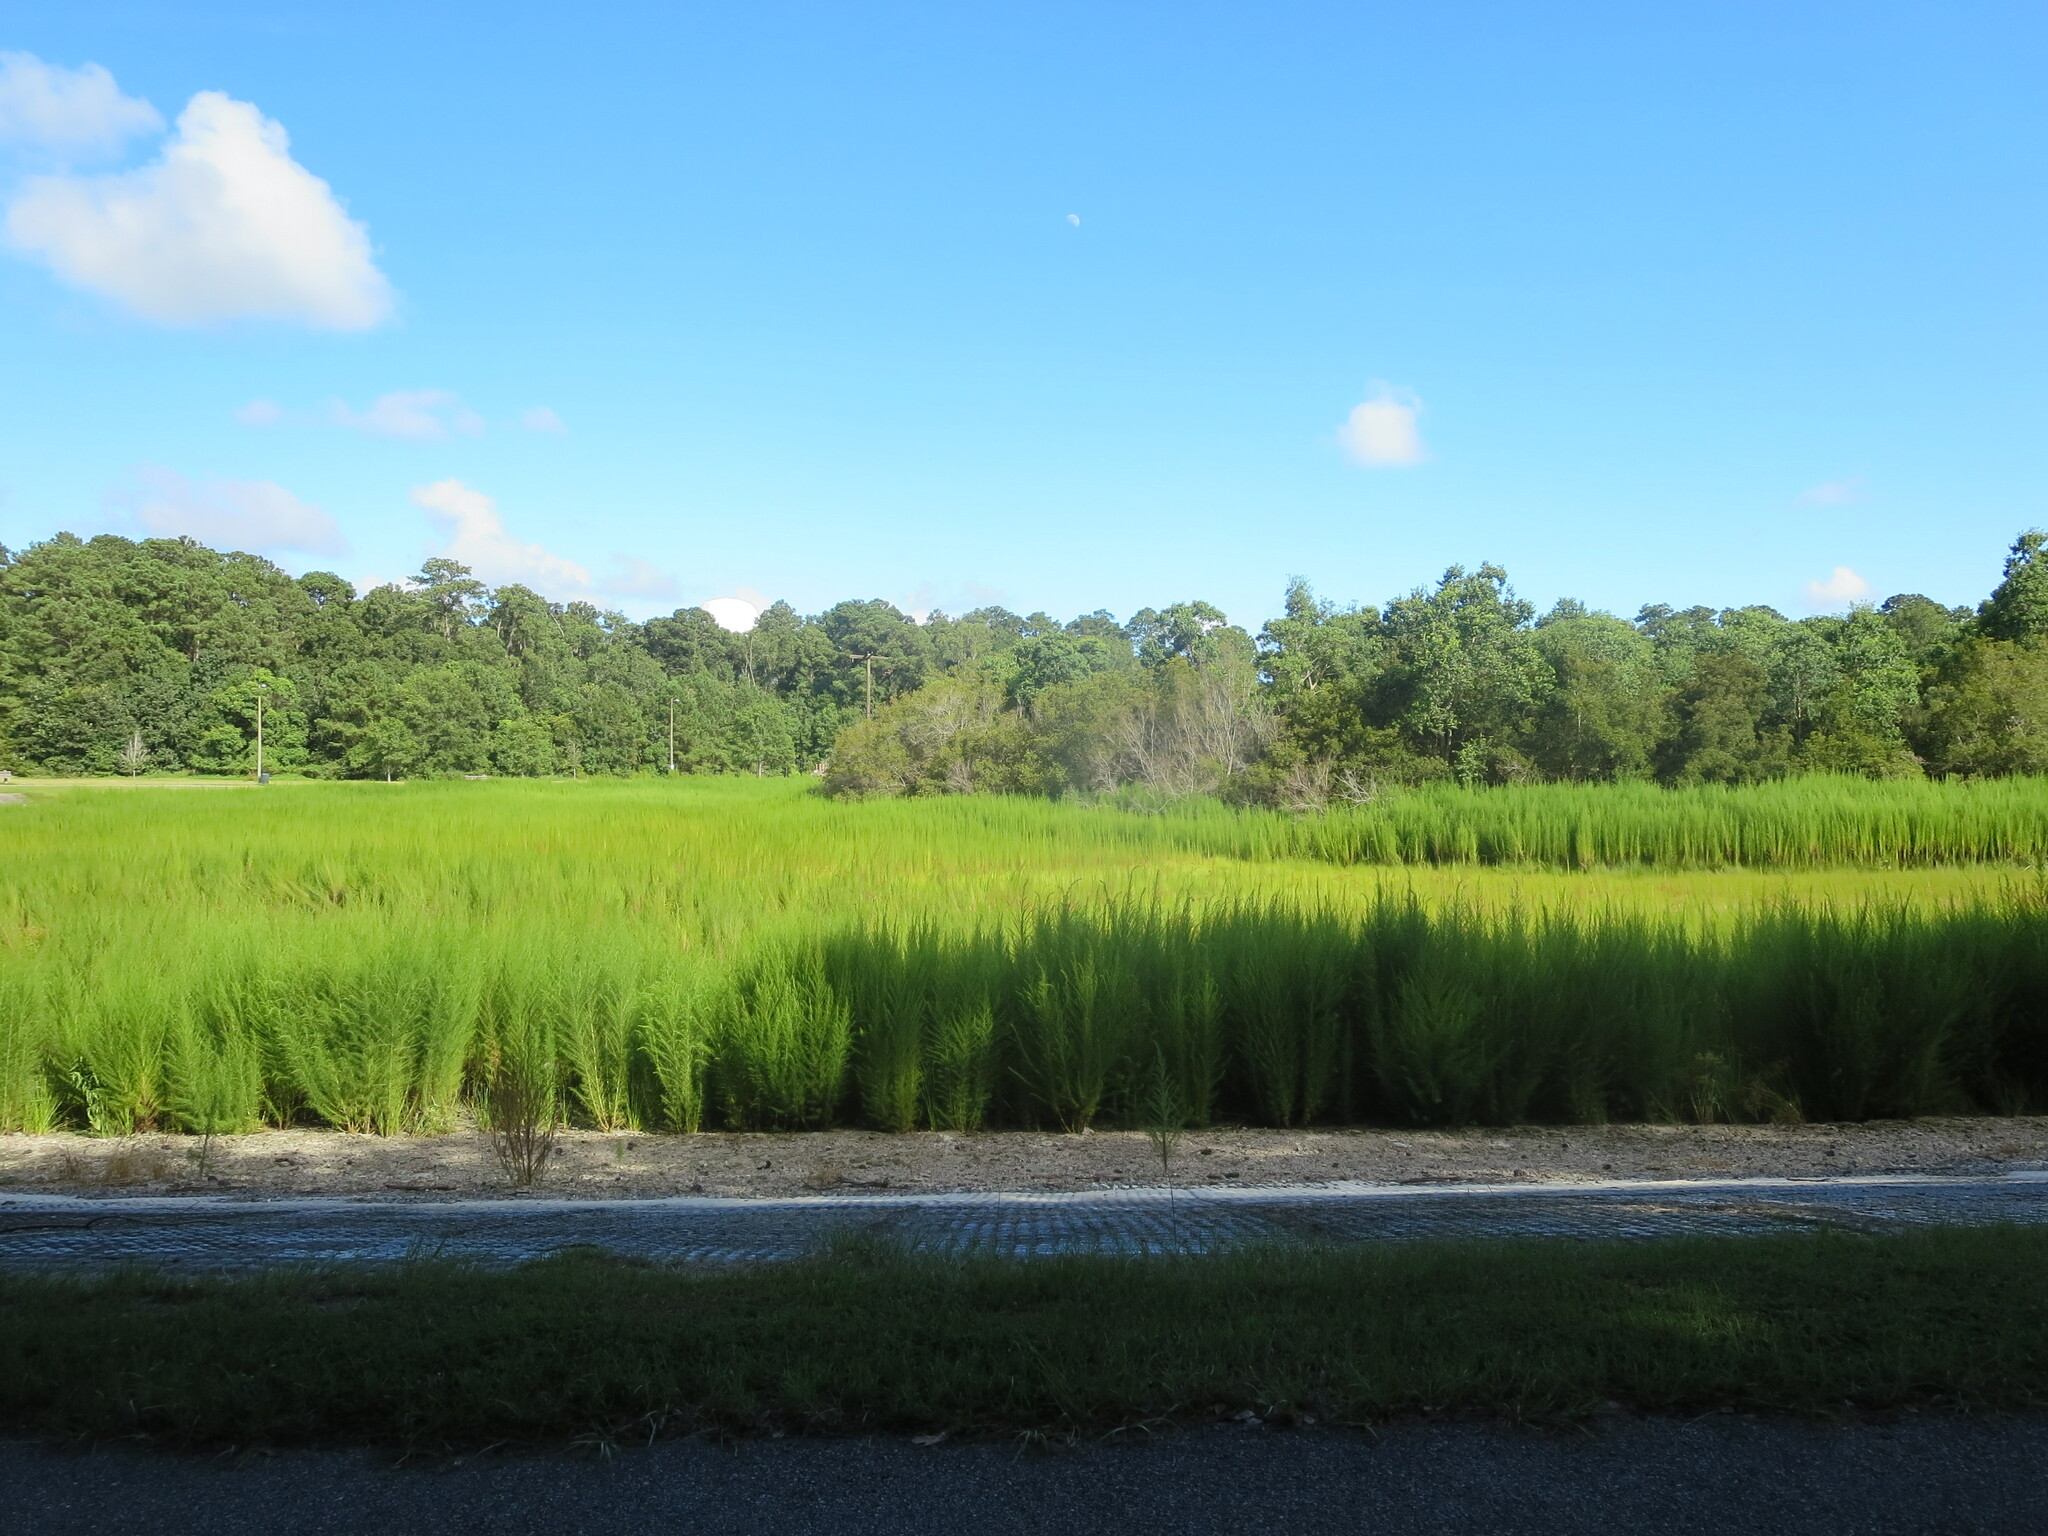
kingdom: Plantae
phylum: Tracheophyta
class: Magnoliopsida
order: Asterales
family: Asteraceae
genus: Eupatorium
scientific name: Eupatorium capillifolium
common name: Dog-fennel
